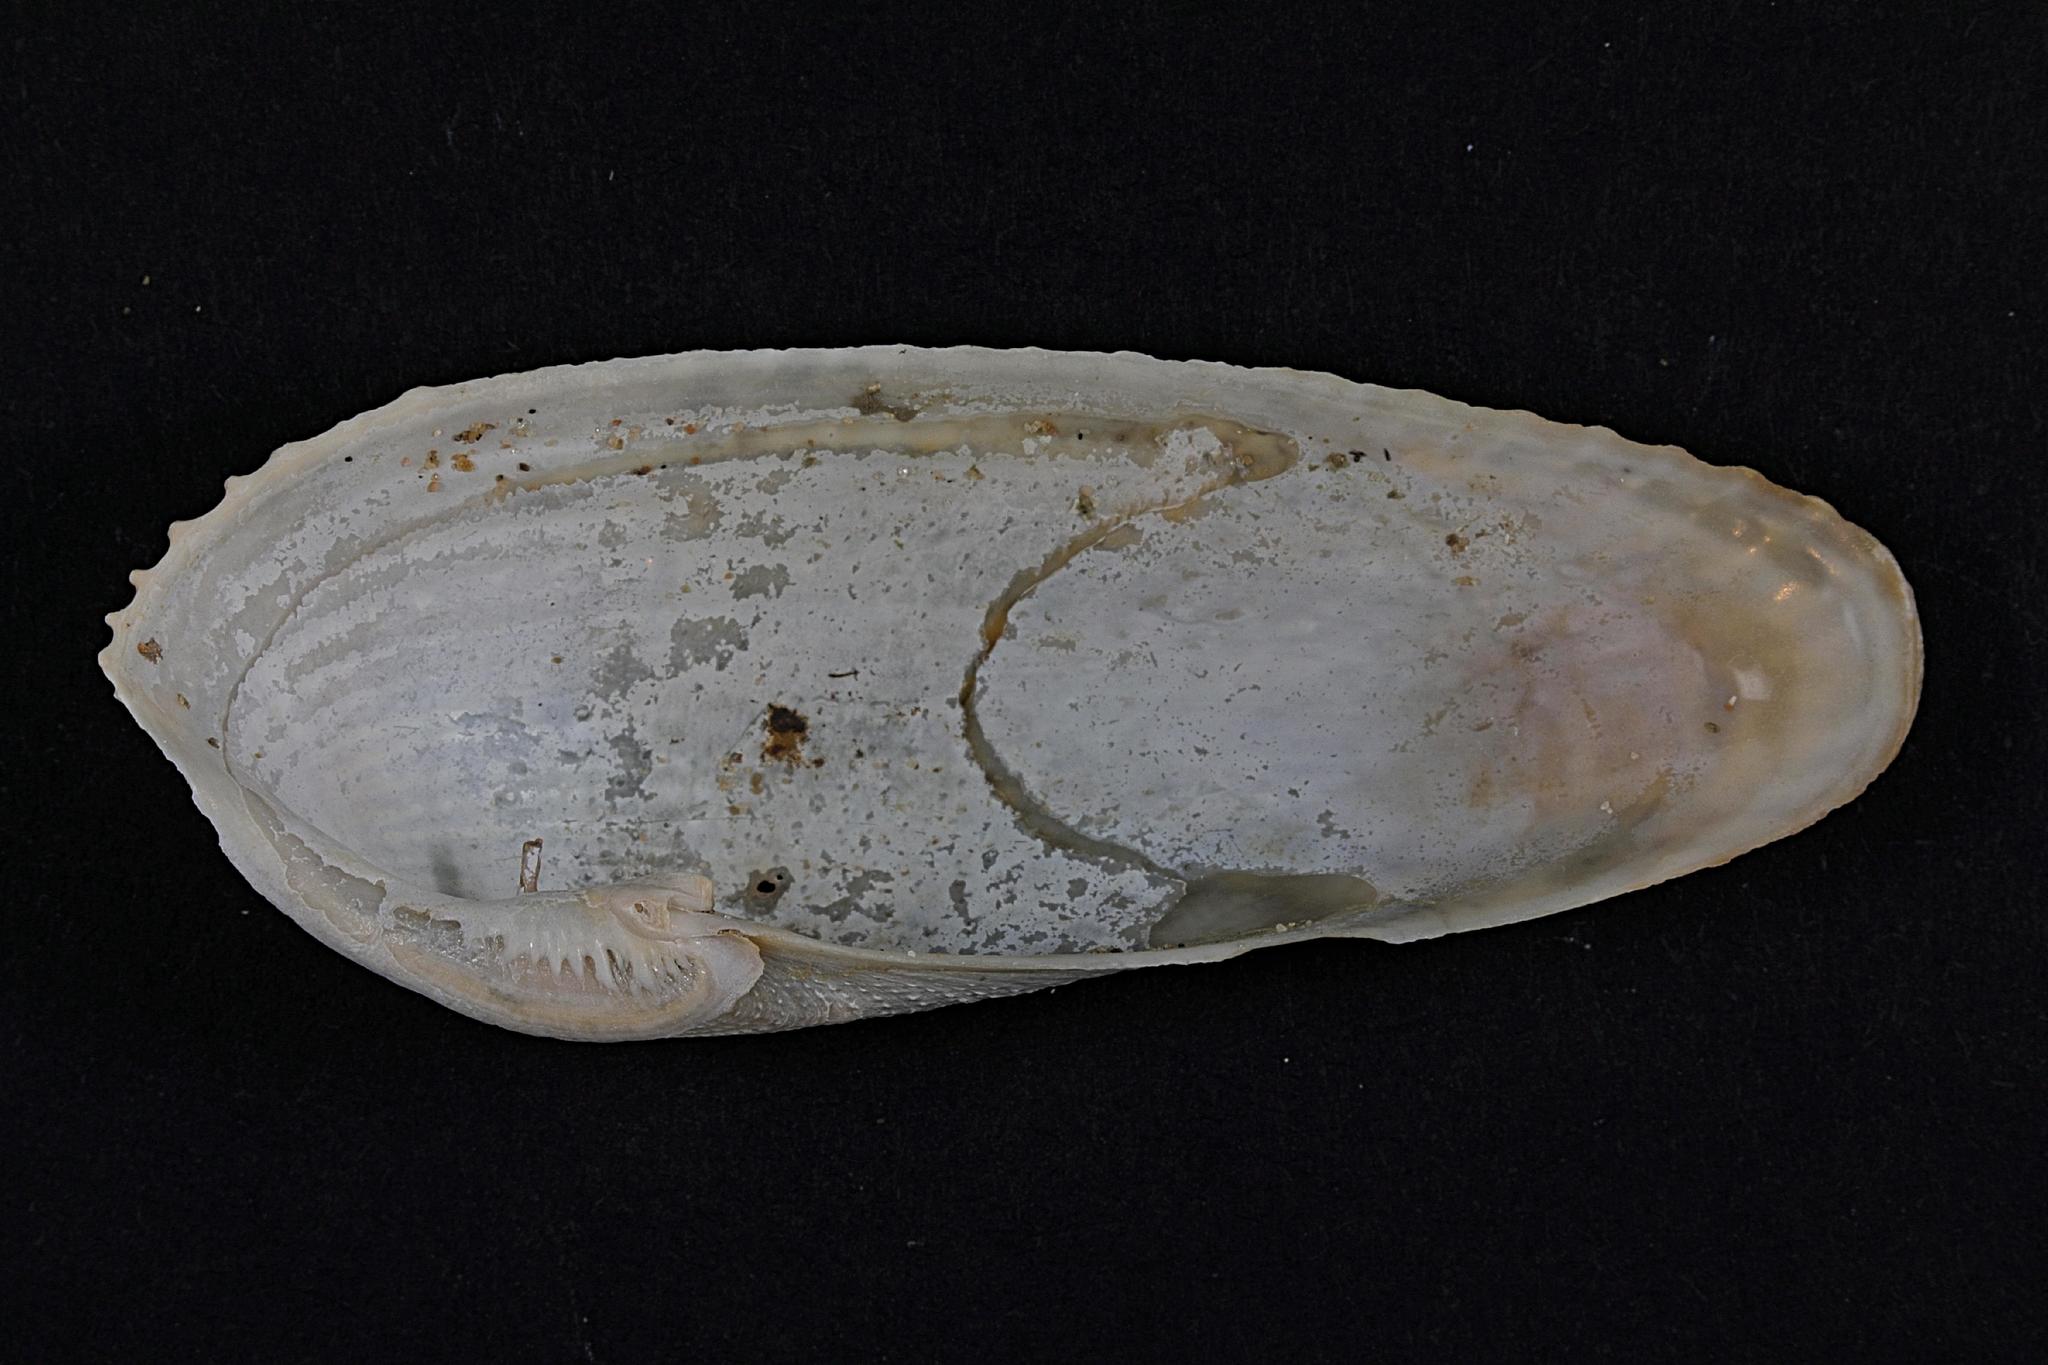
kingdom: Animalia
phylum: Mollusca
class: Bivalvia
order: Myida
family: Pholadidae
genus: Barnea
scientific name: Barnea candida
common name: White piddock
